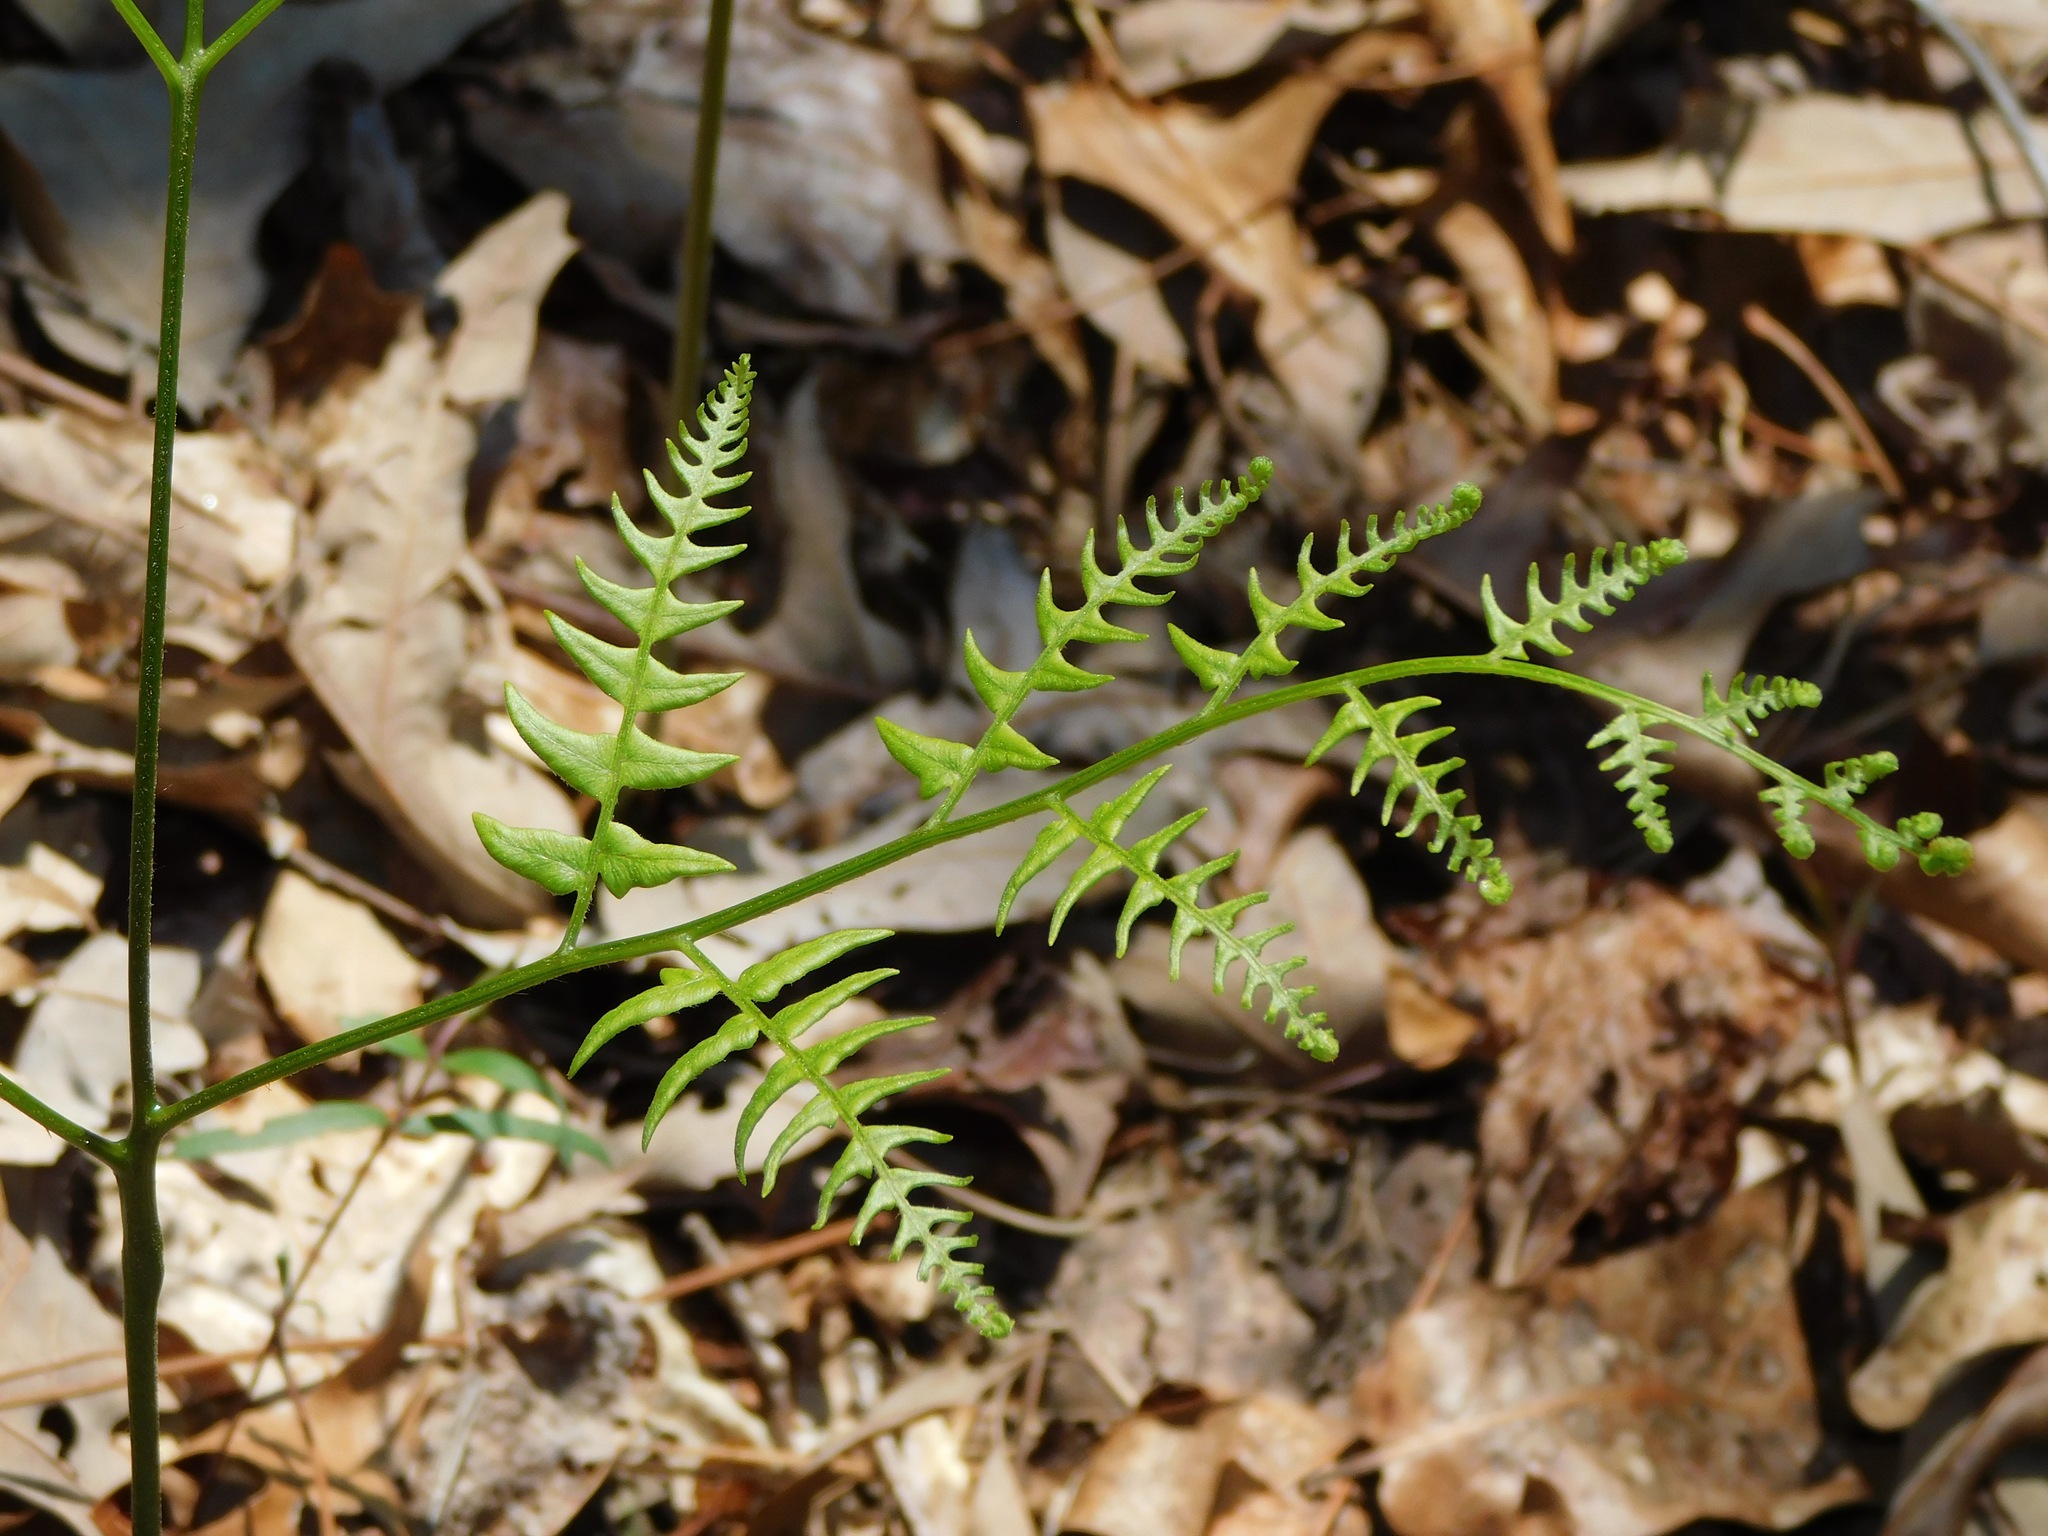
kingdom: Plantae
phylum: Tracheophyta
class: Polypodiopsida
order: Polypodiales
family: Dennstaedtiaceae
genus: Pteridium
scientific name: Pteridium aquilinum
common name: Bracken
